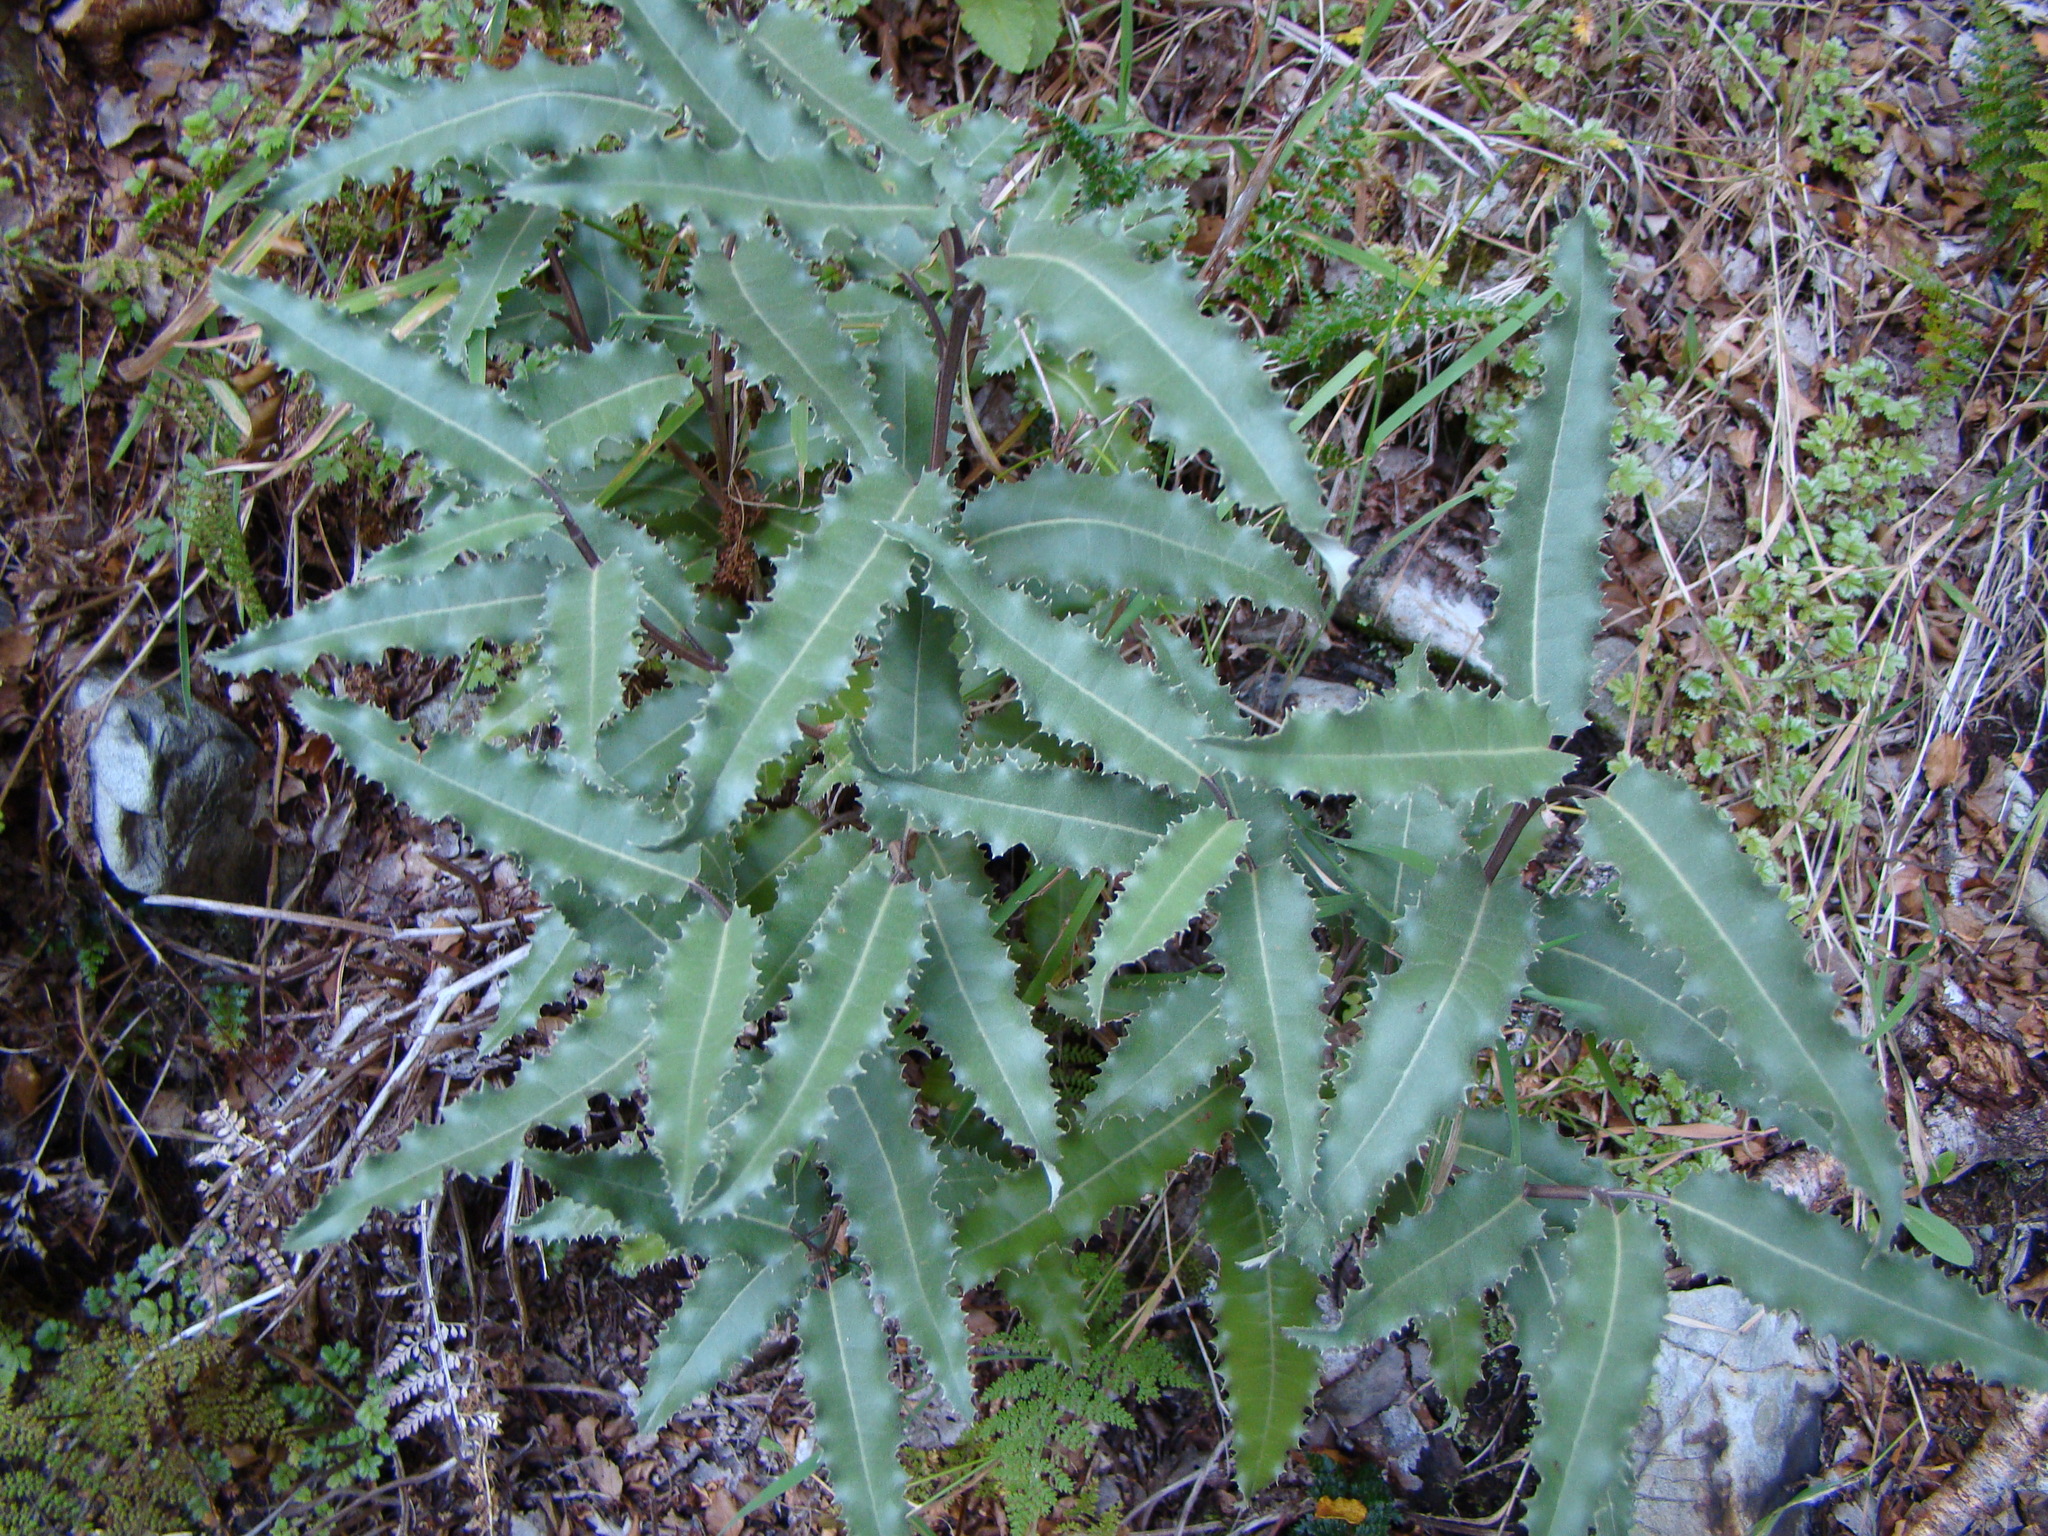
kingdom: Plantae
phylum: Tracheophyta
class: Magnoliopsida
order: Asterales
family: Asteraceae
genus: Olearia
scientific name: Olearia ilicifolia
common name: Maori-holly
